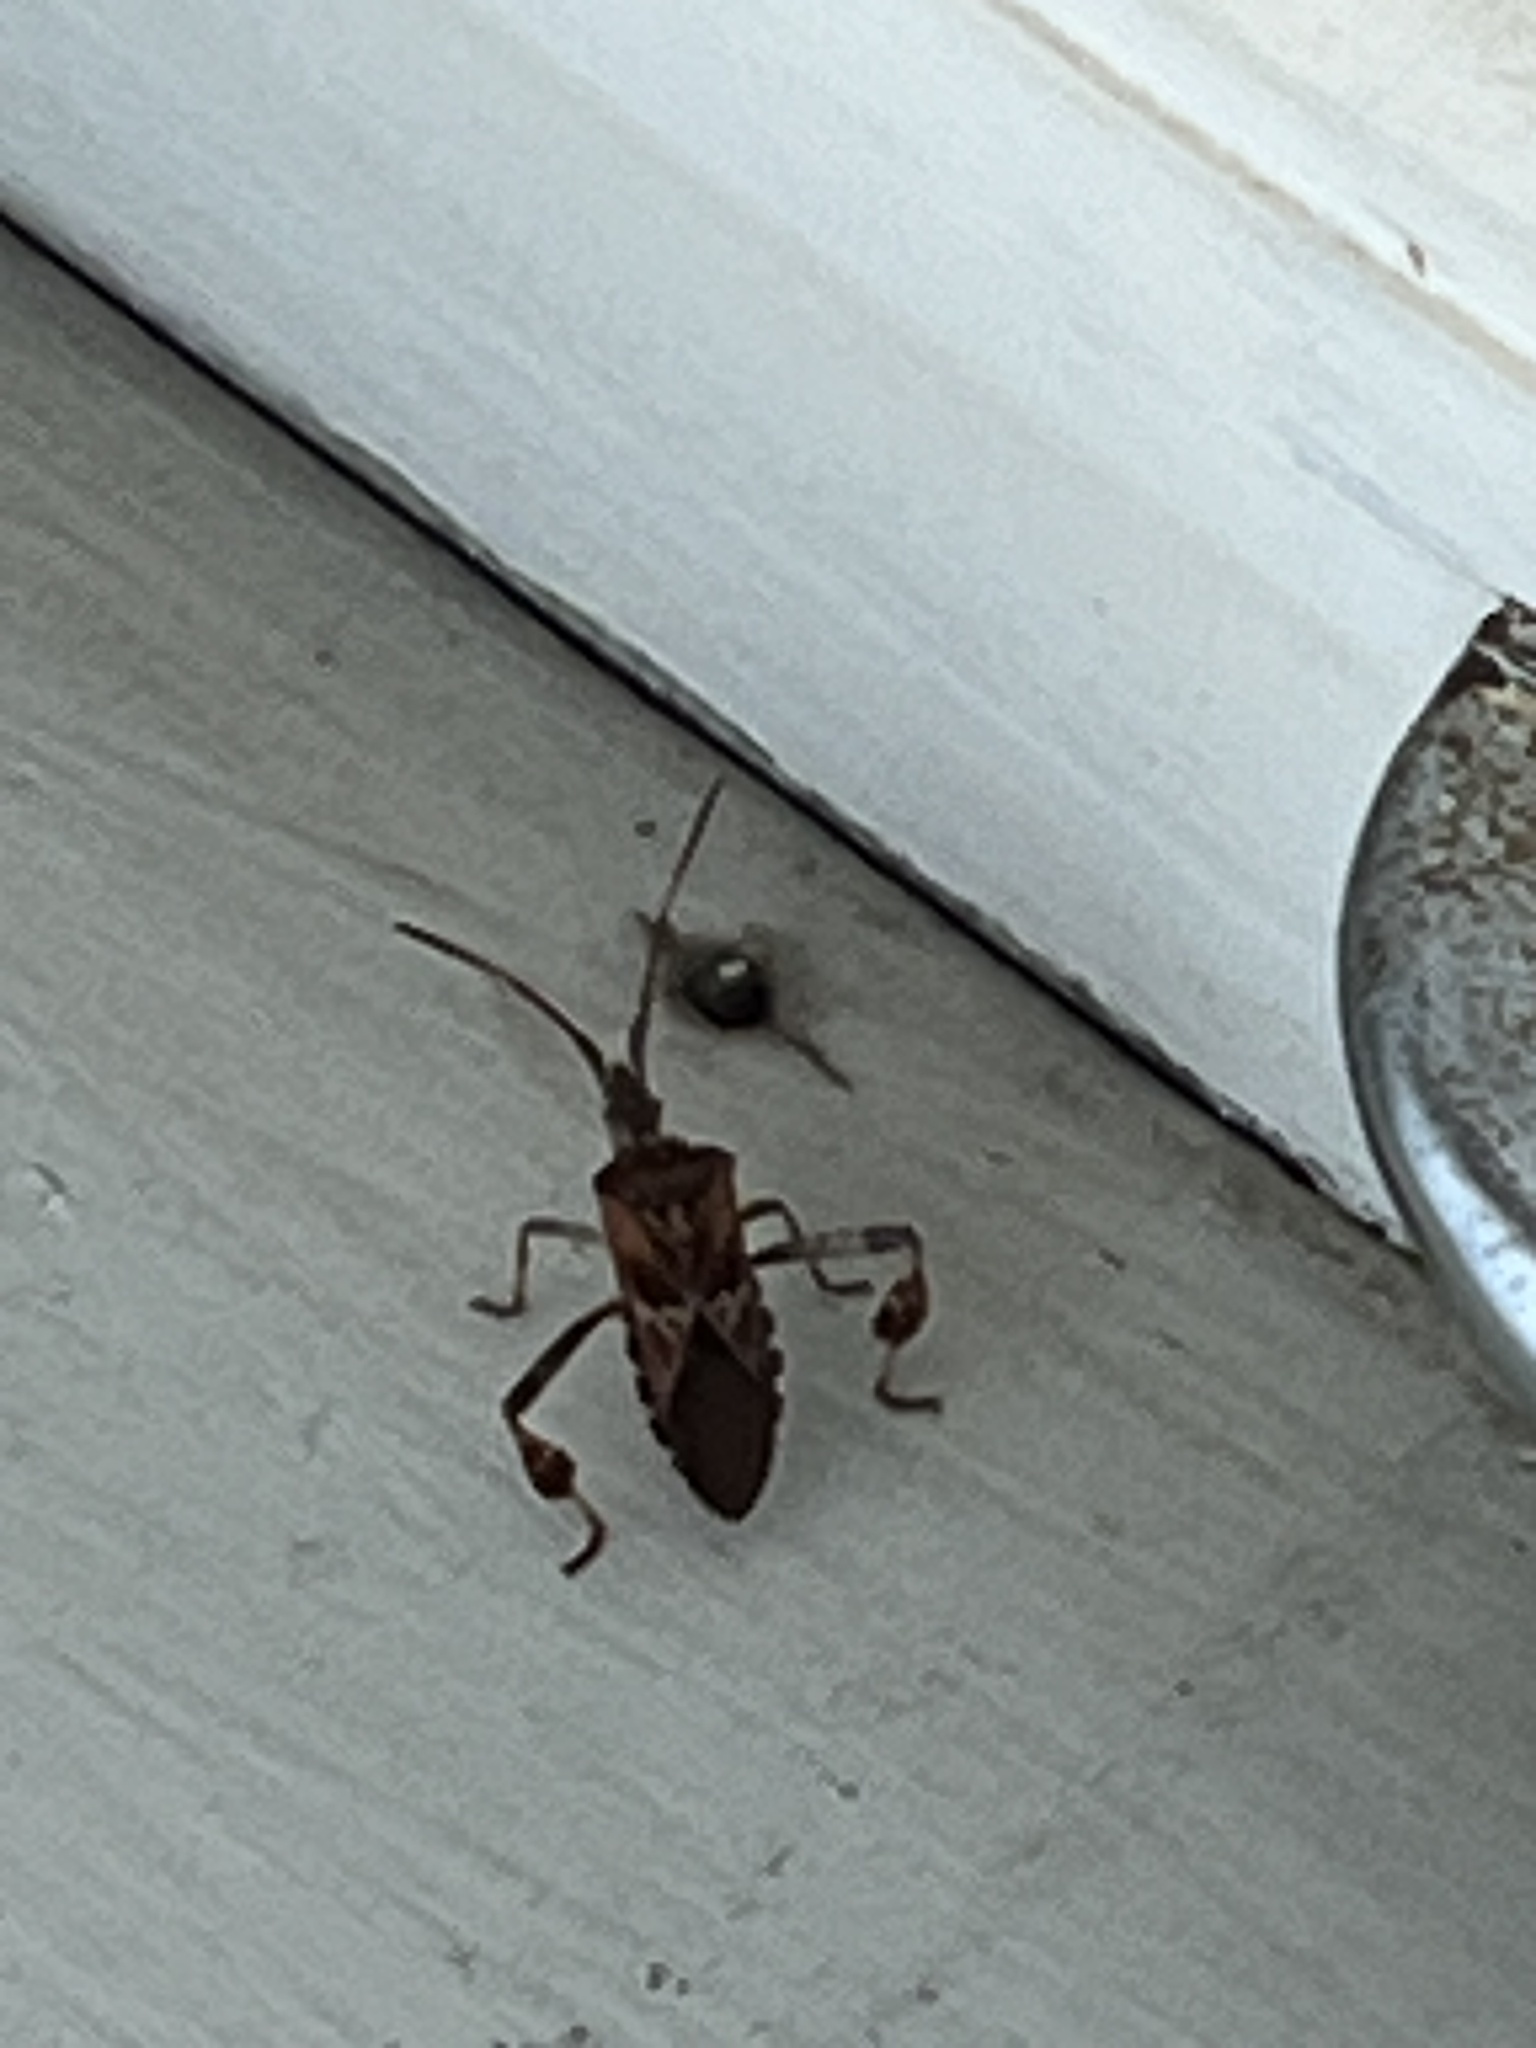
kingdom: Animalia
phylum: Arthropoda
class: Insecta
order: Hemiptera
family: Coreidae
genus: Leptoglossus
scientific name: Leptoglossus occidentalis
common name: Western conifer-seed bug
